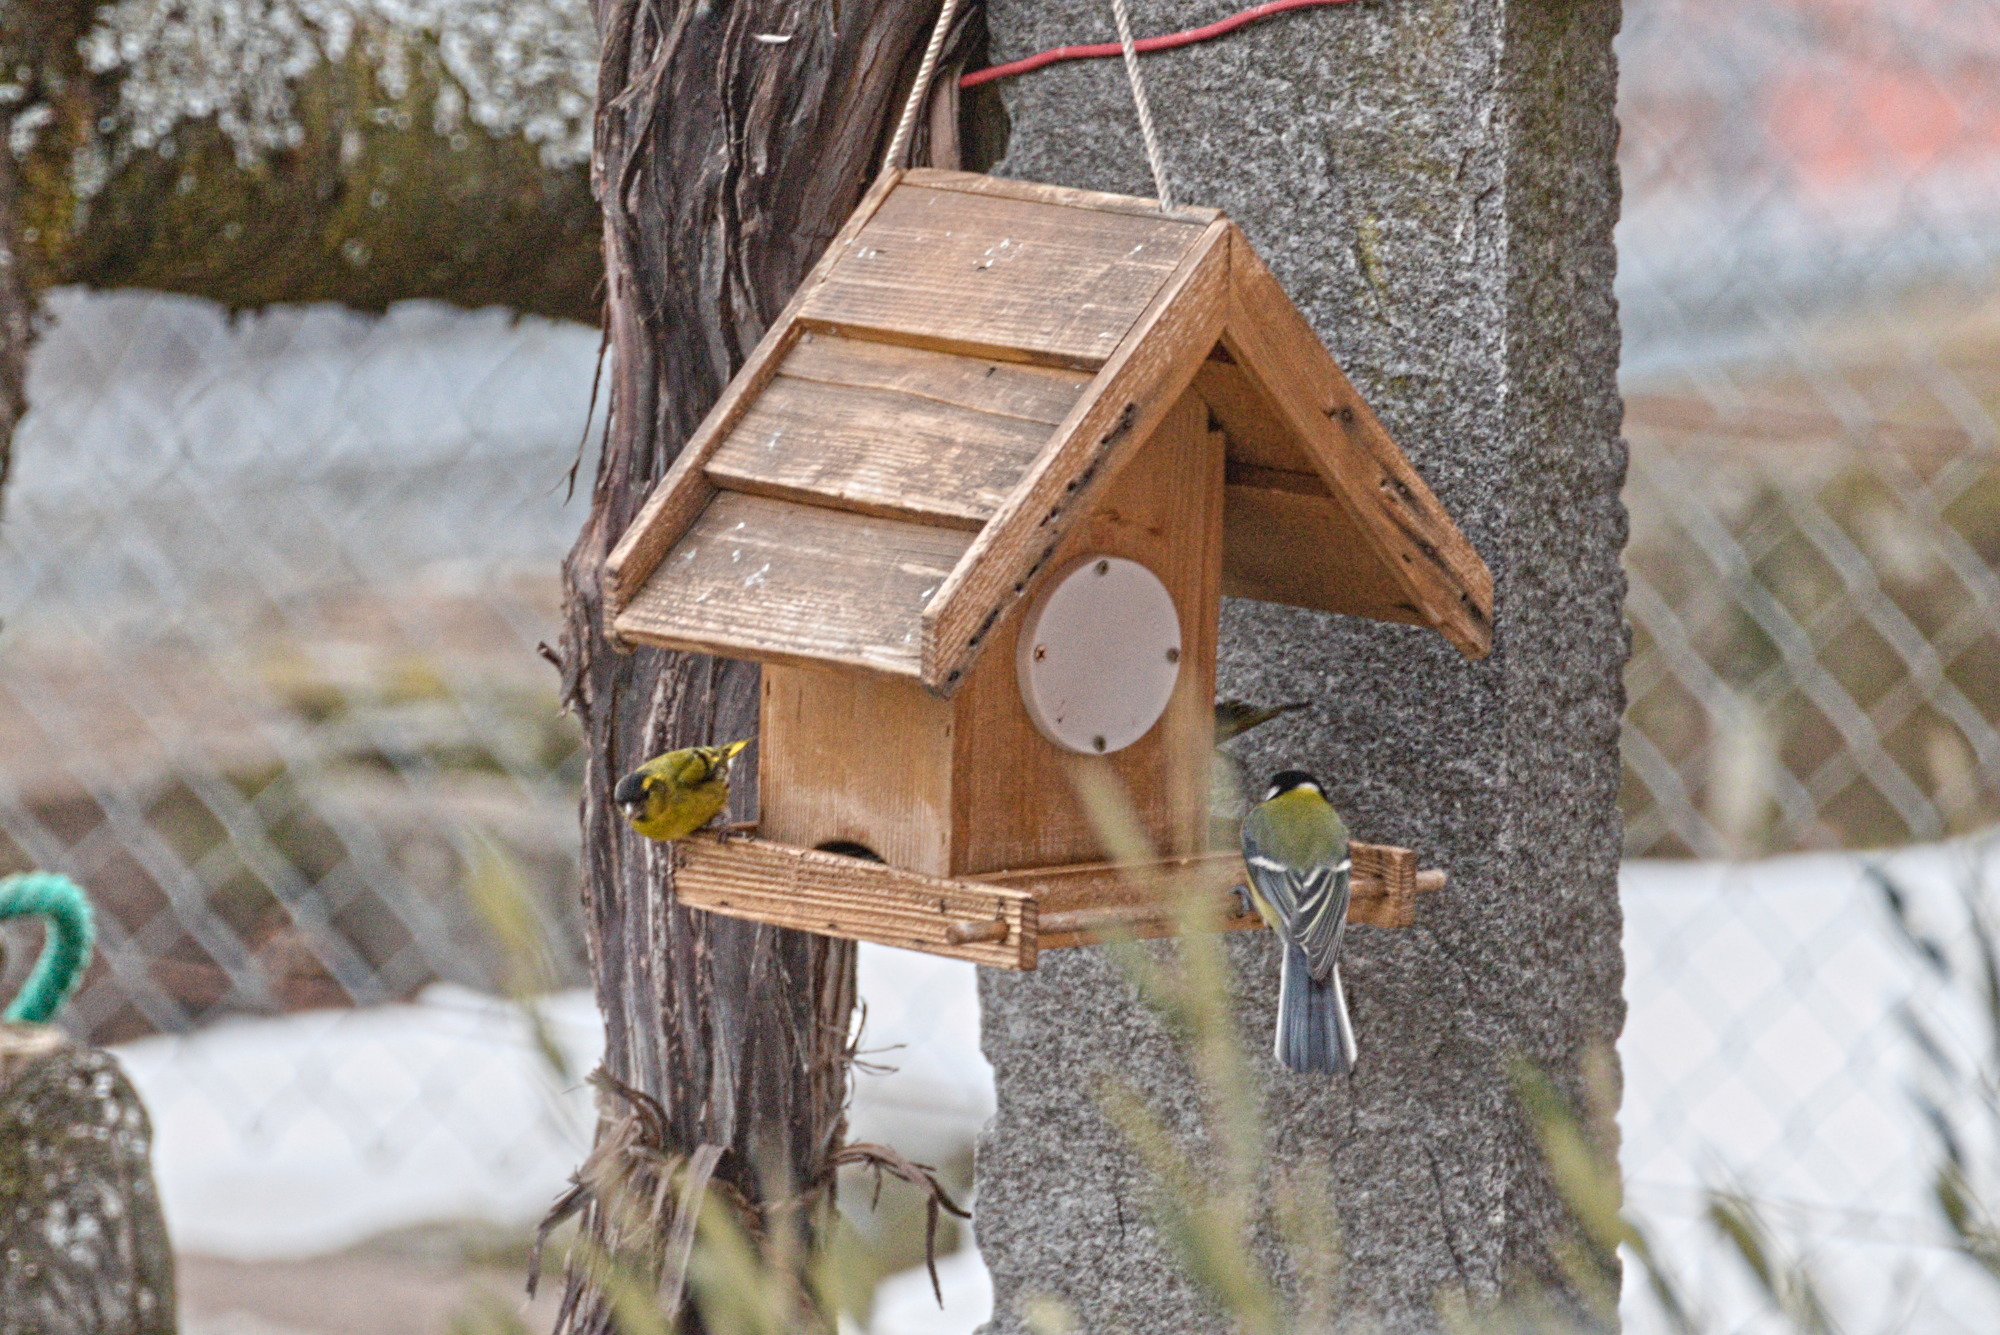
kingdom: Animalia
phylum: Chordata
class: Aves
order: Passeriformes
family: Paridae
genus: Parus
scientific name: Parus major
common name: Great tit
